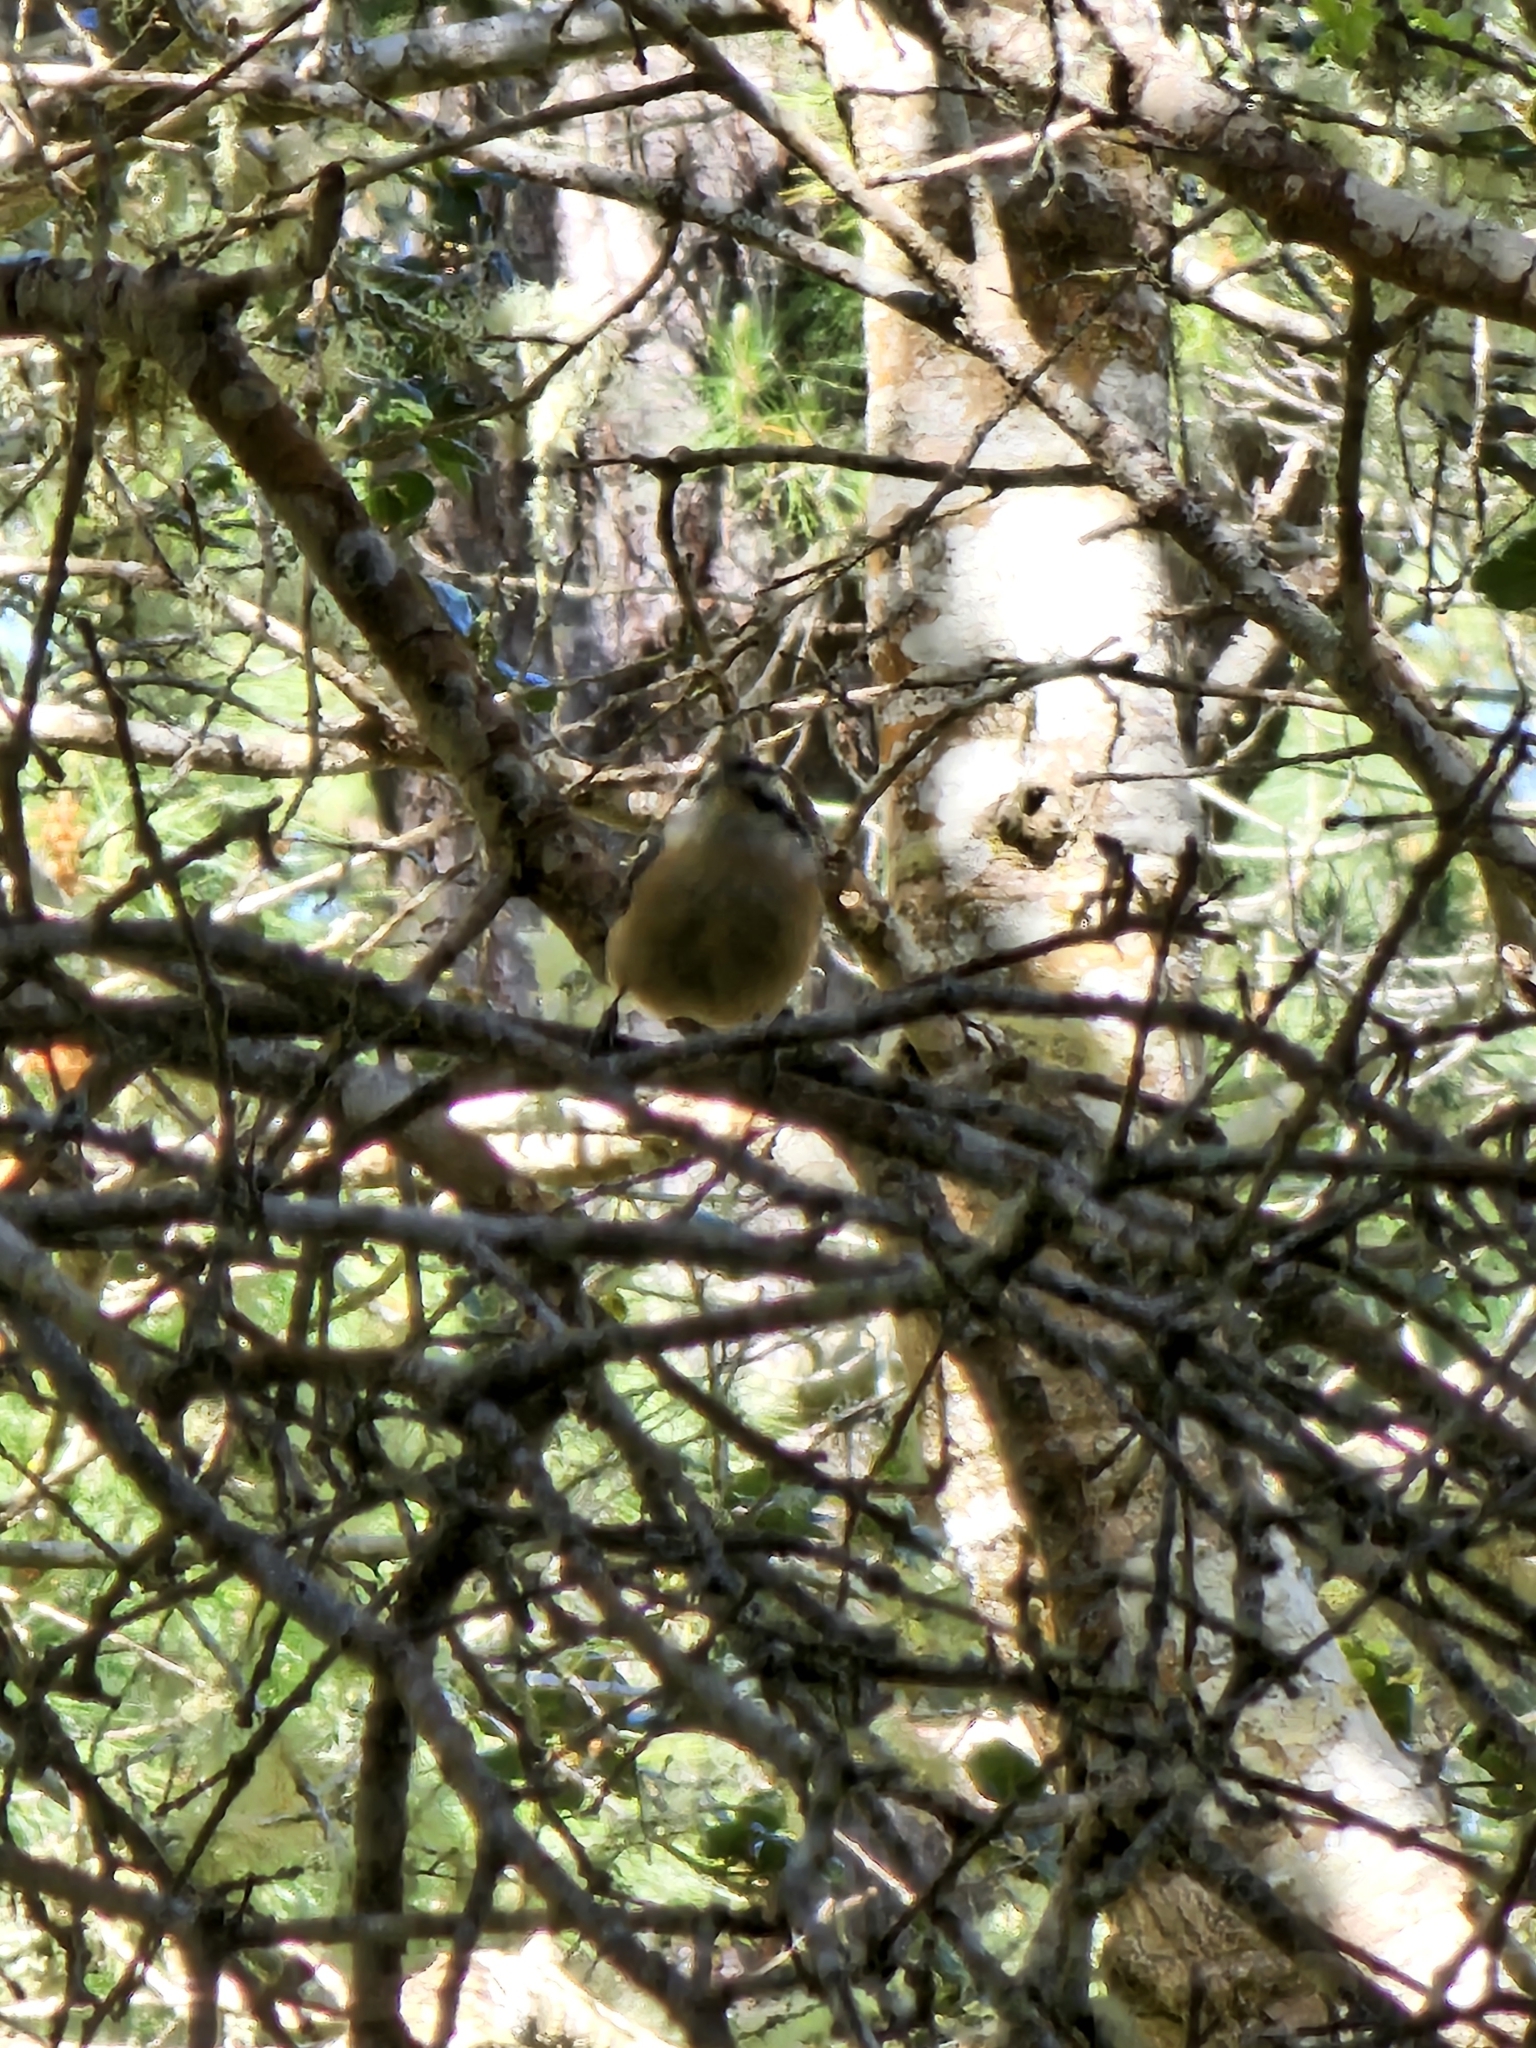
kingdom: Animalia
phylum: Chordata
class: Aves
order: Passeriformes
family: Sittidae
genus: Sitta
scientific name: Sitta canadensis
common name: Red-breasted nuthatch
